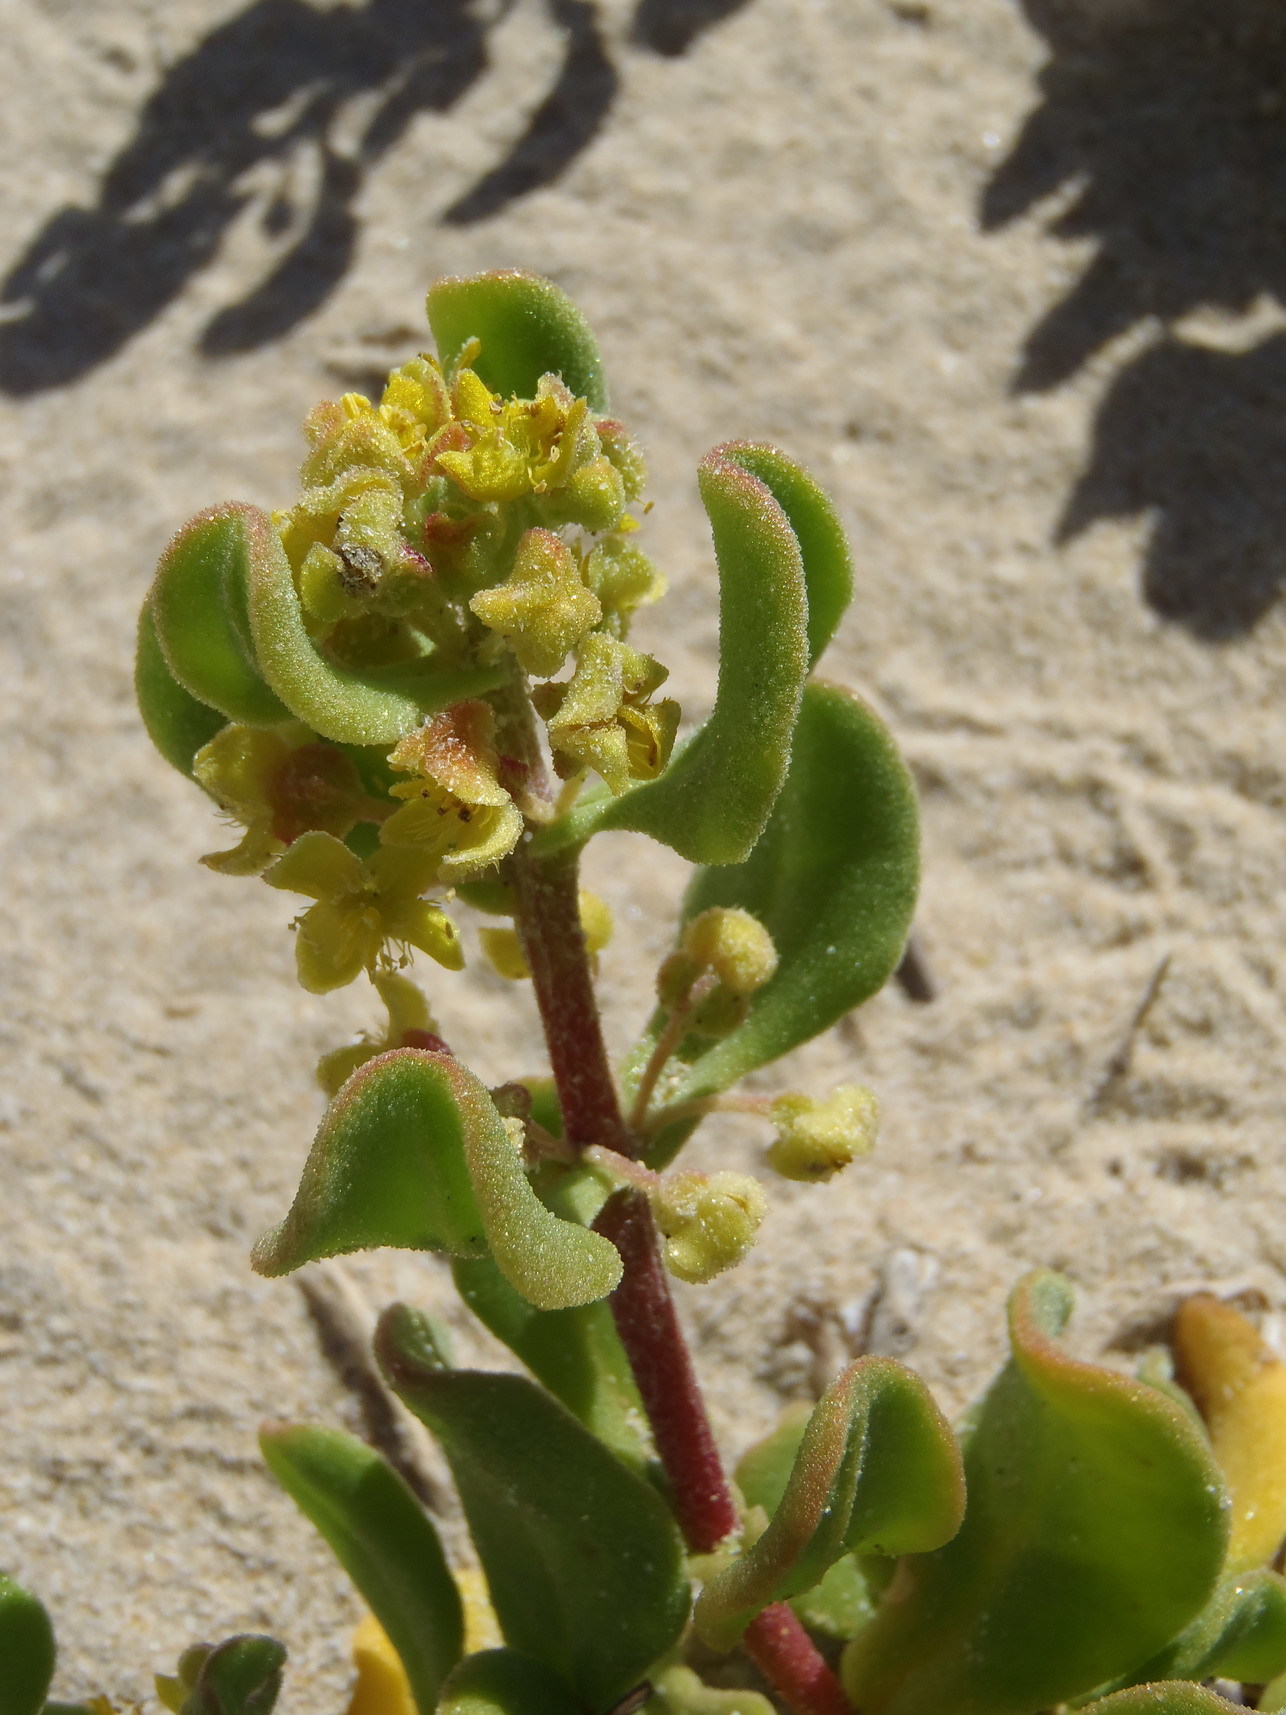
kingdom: Plantae
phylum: Tracheophyta
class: Magnoliopsida
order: Caryophyllales
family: Aizoaceae
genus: Tetragonia
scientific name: Tetragonia decumbens
